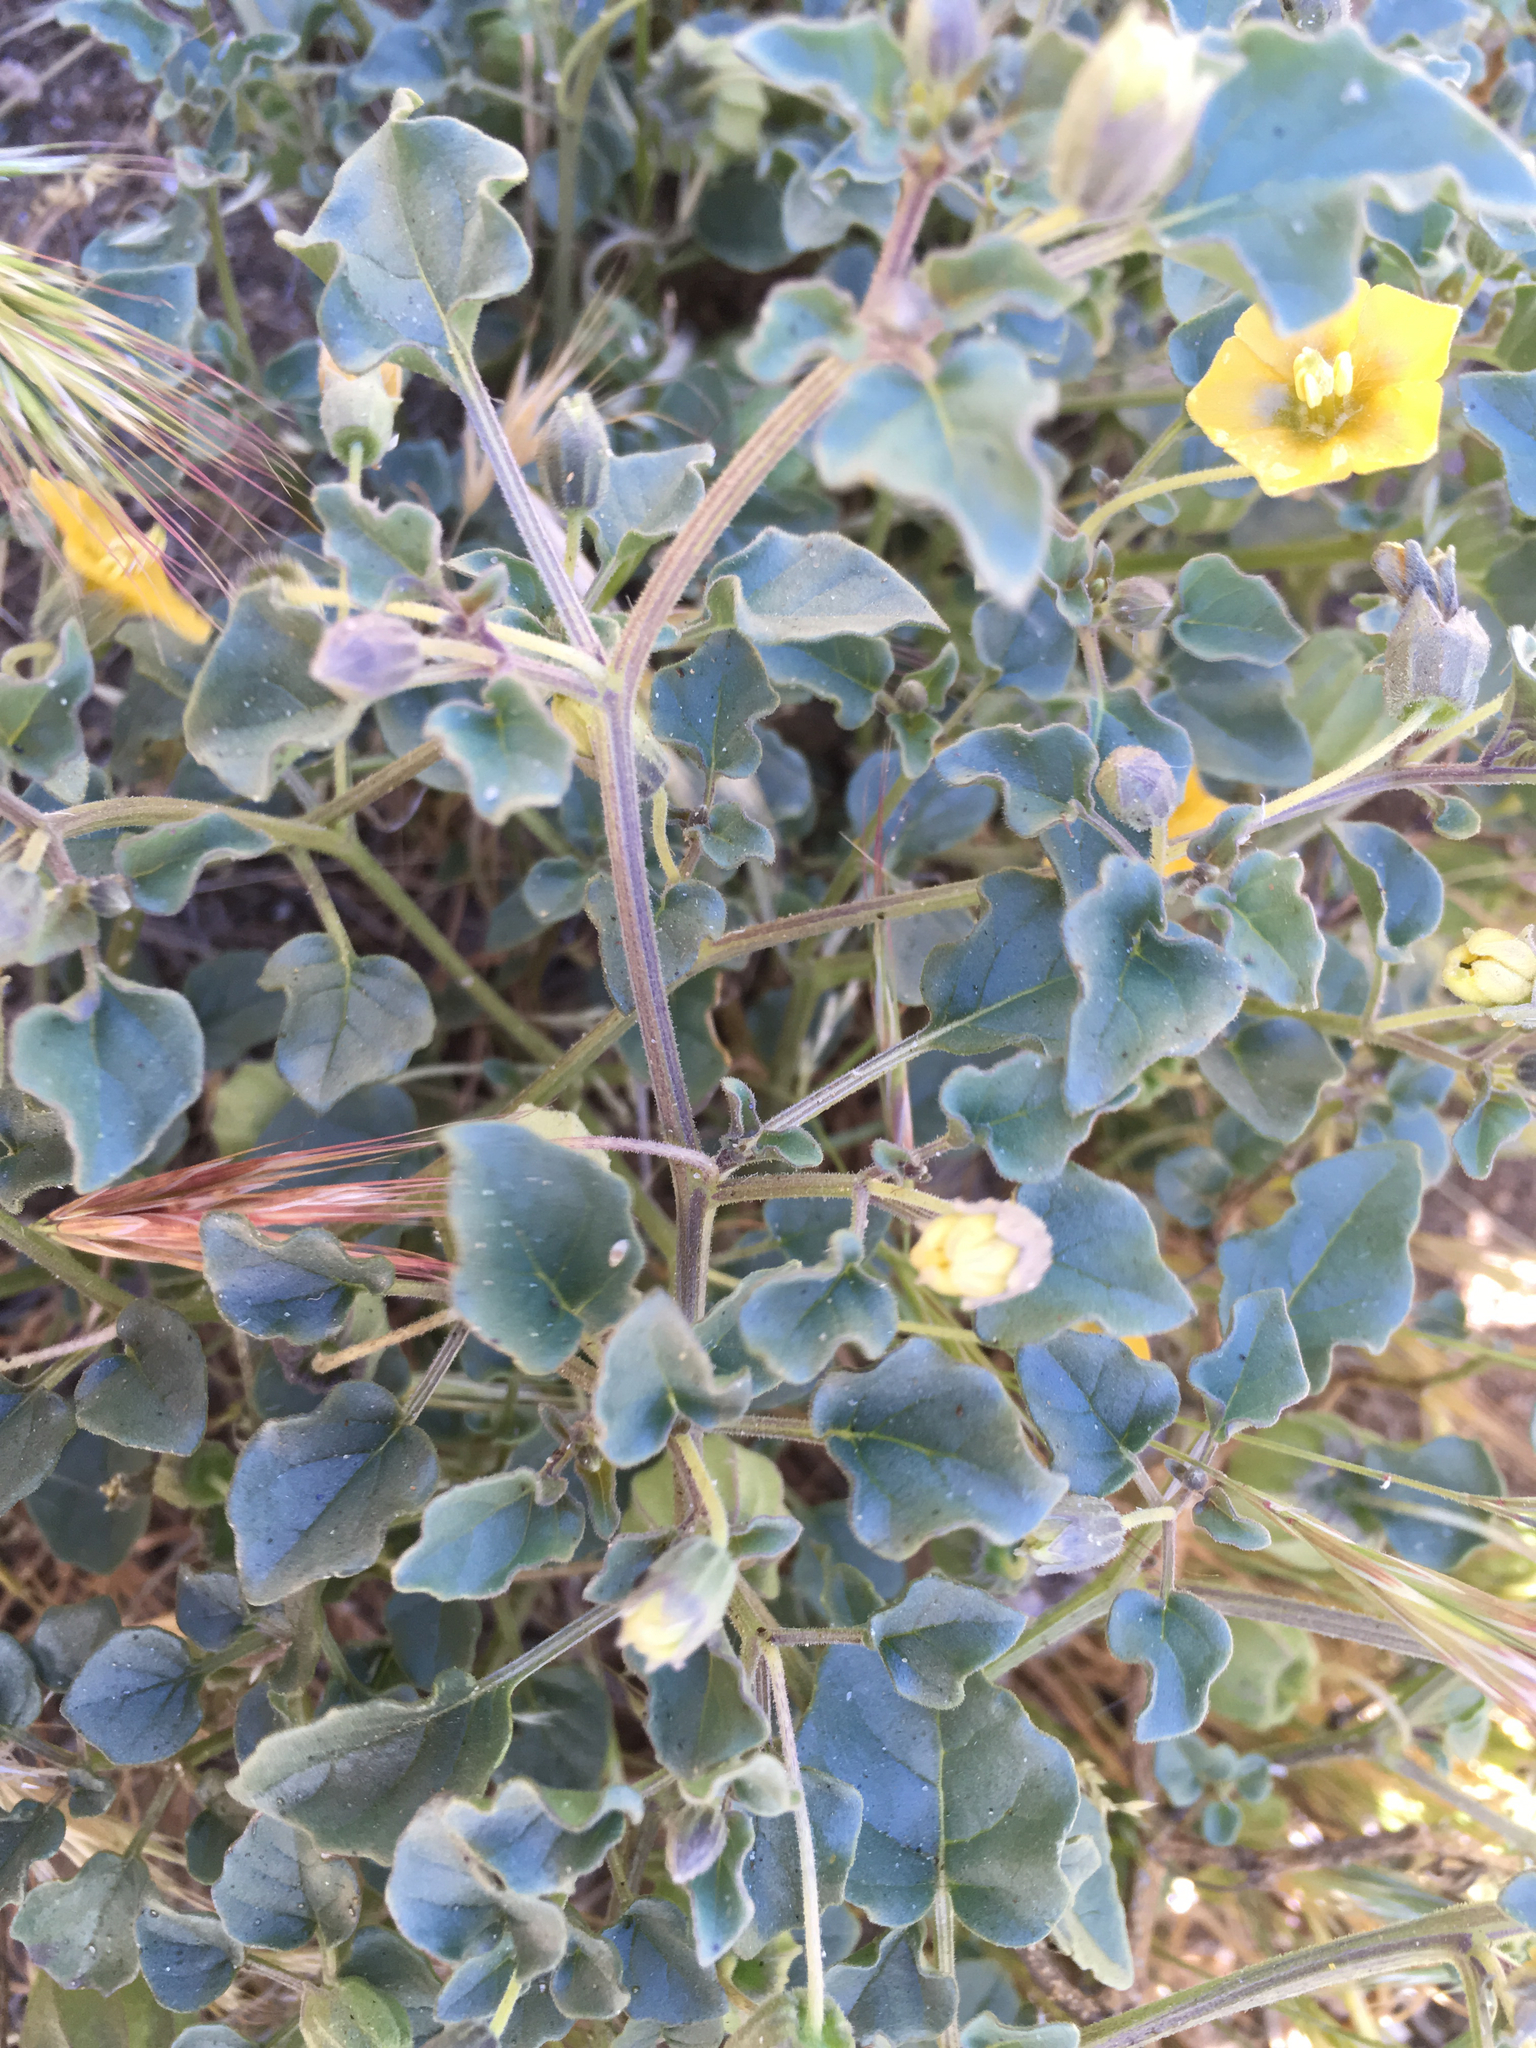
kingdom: Plantae
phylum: Tracheophyta
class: Magnoliopsida
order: Solanales
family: Solanaceae
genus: Physalis
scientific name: Physalis crassifolia
